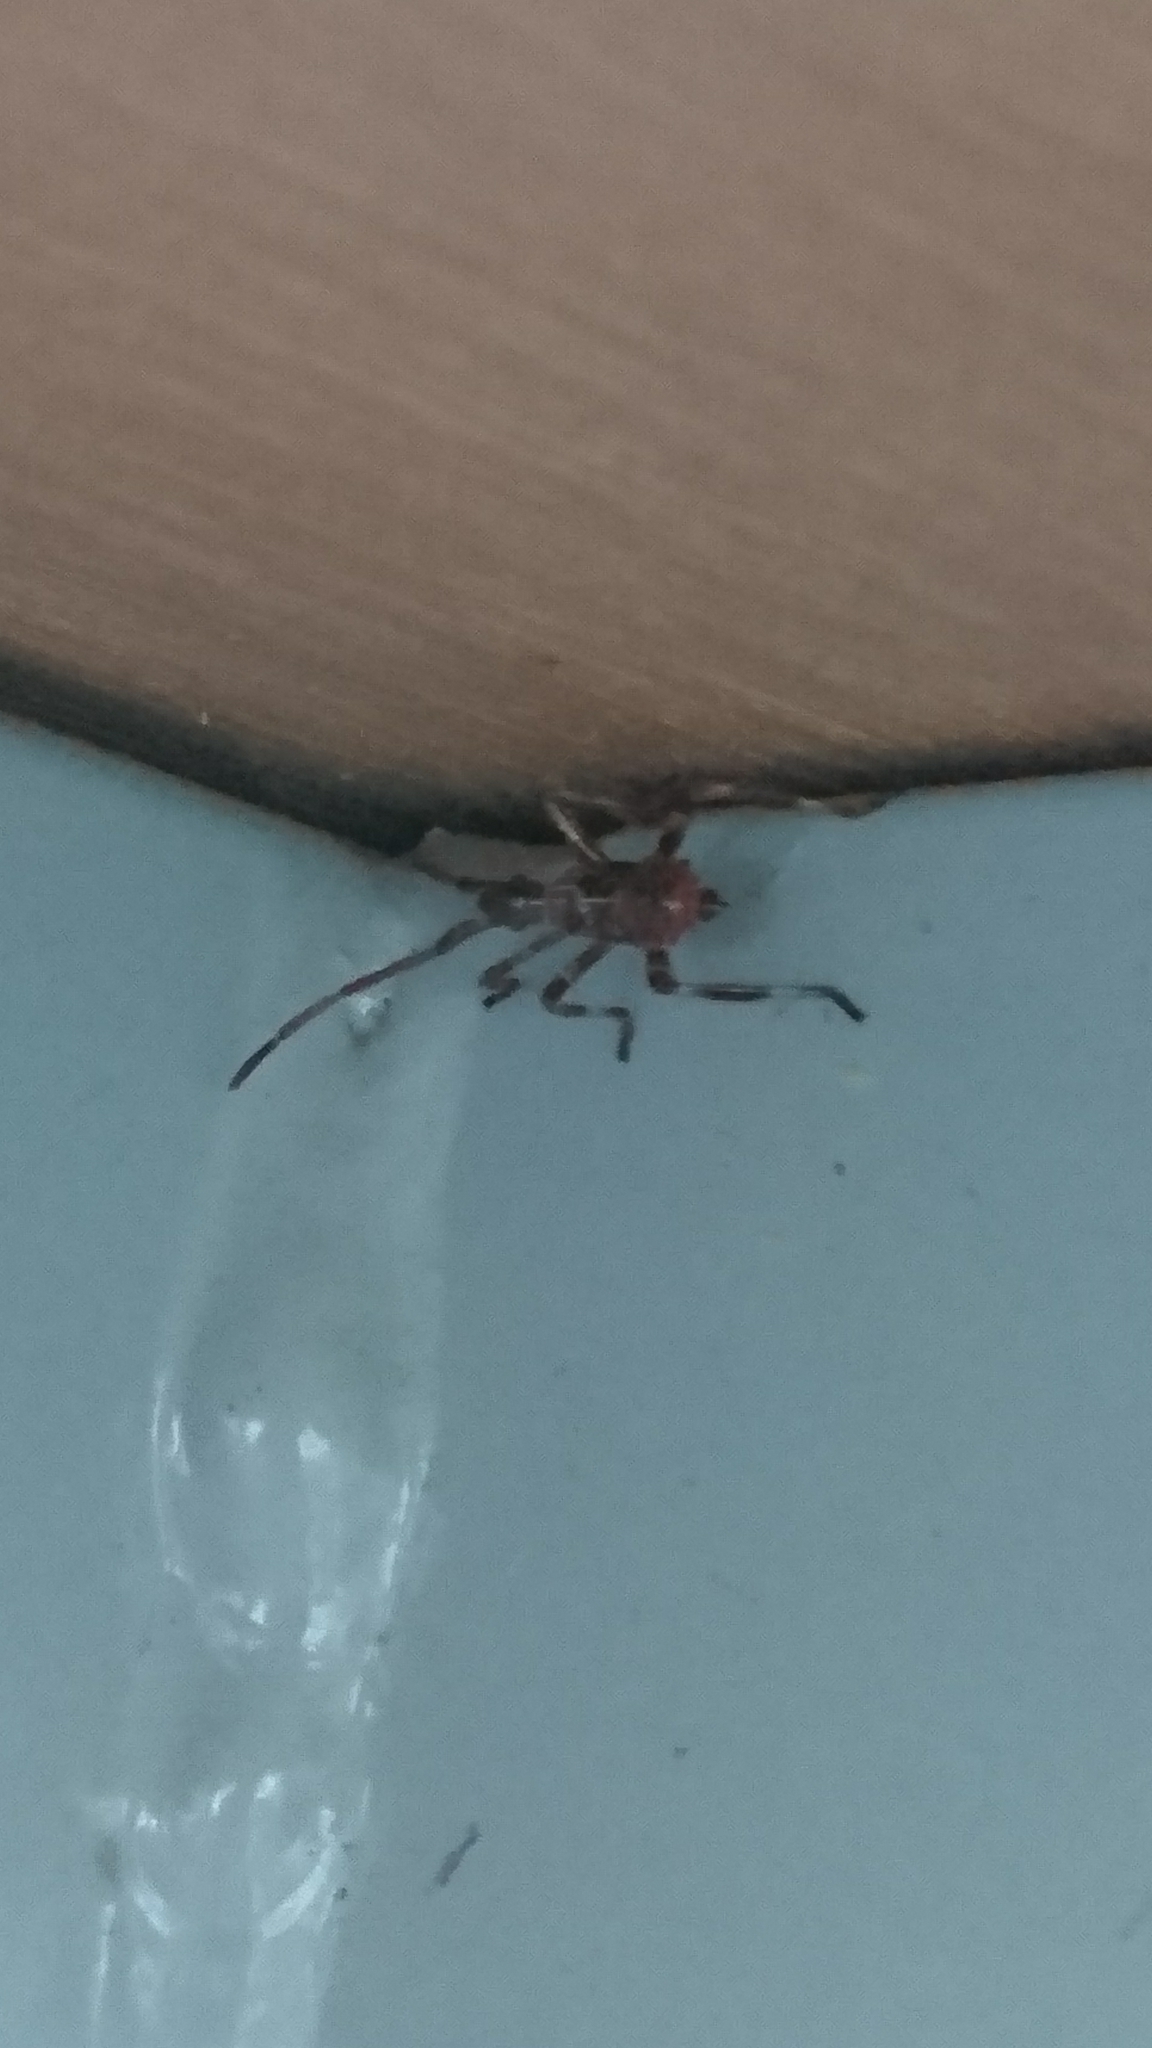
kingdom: Animalia
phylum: Arthropoda
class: Insecta
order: Hemiptera
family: Coreidae
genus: Leptoglossus
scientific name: Leptoglossus occidentalis
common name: Western conifer-seed bug
